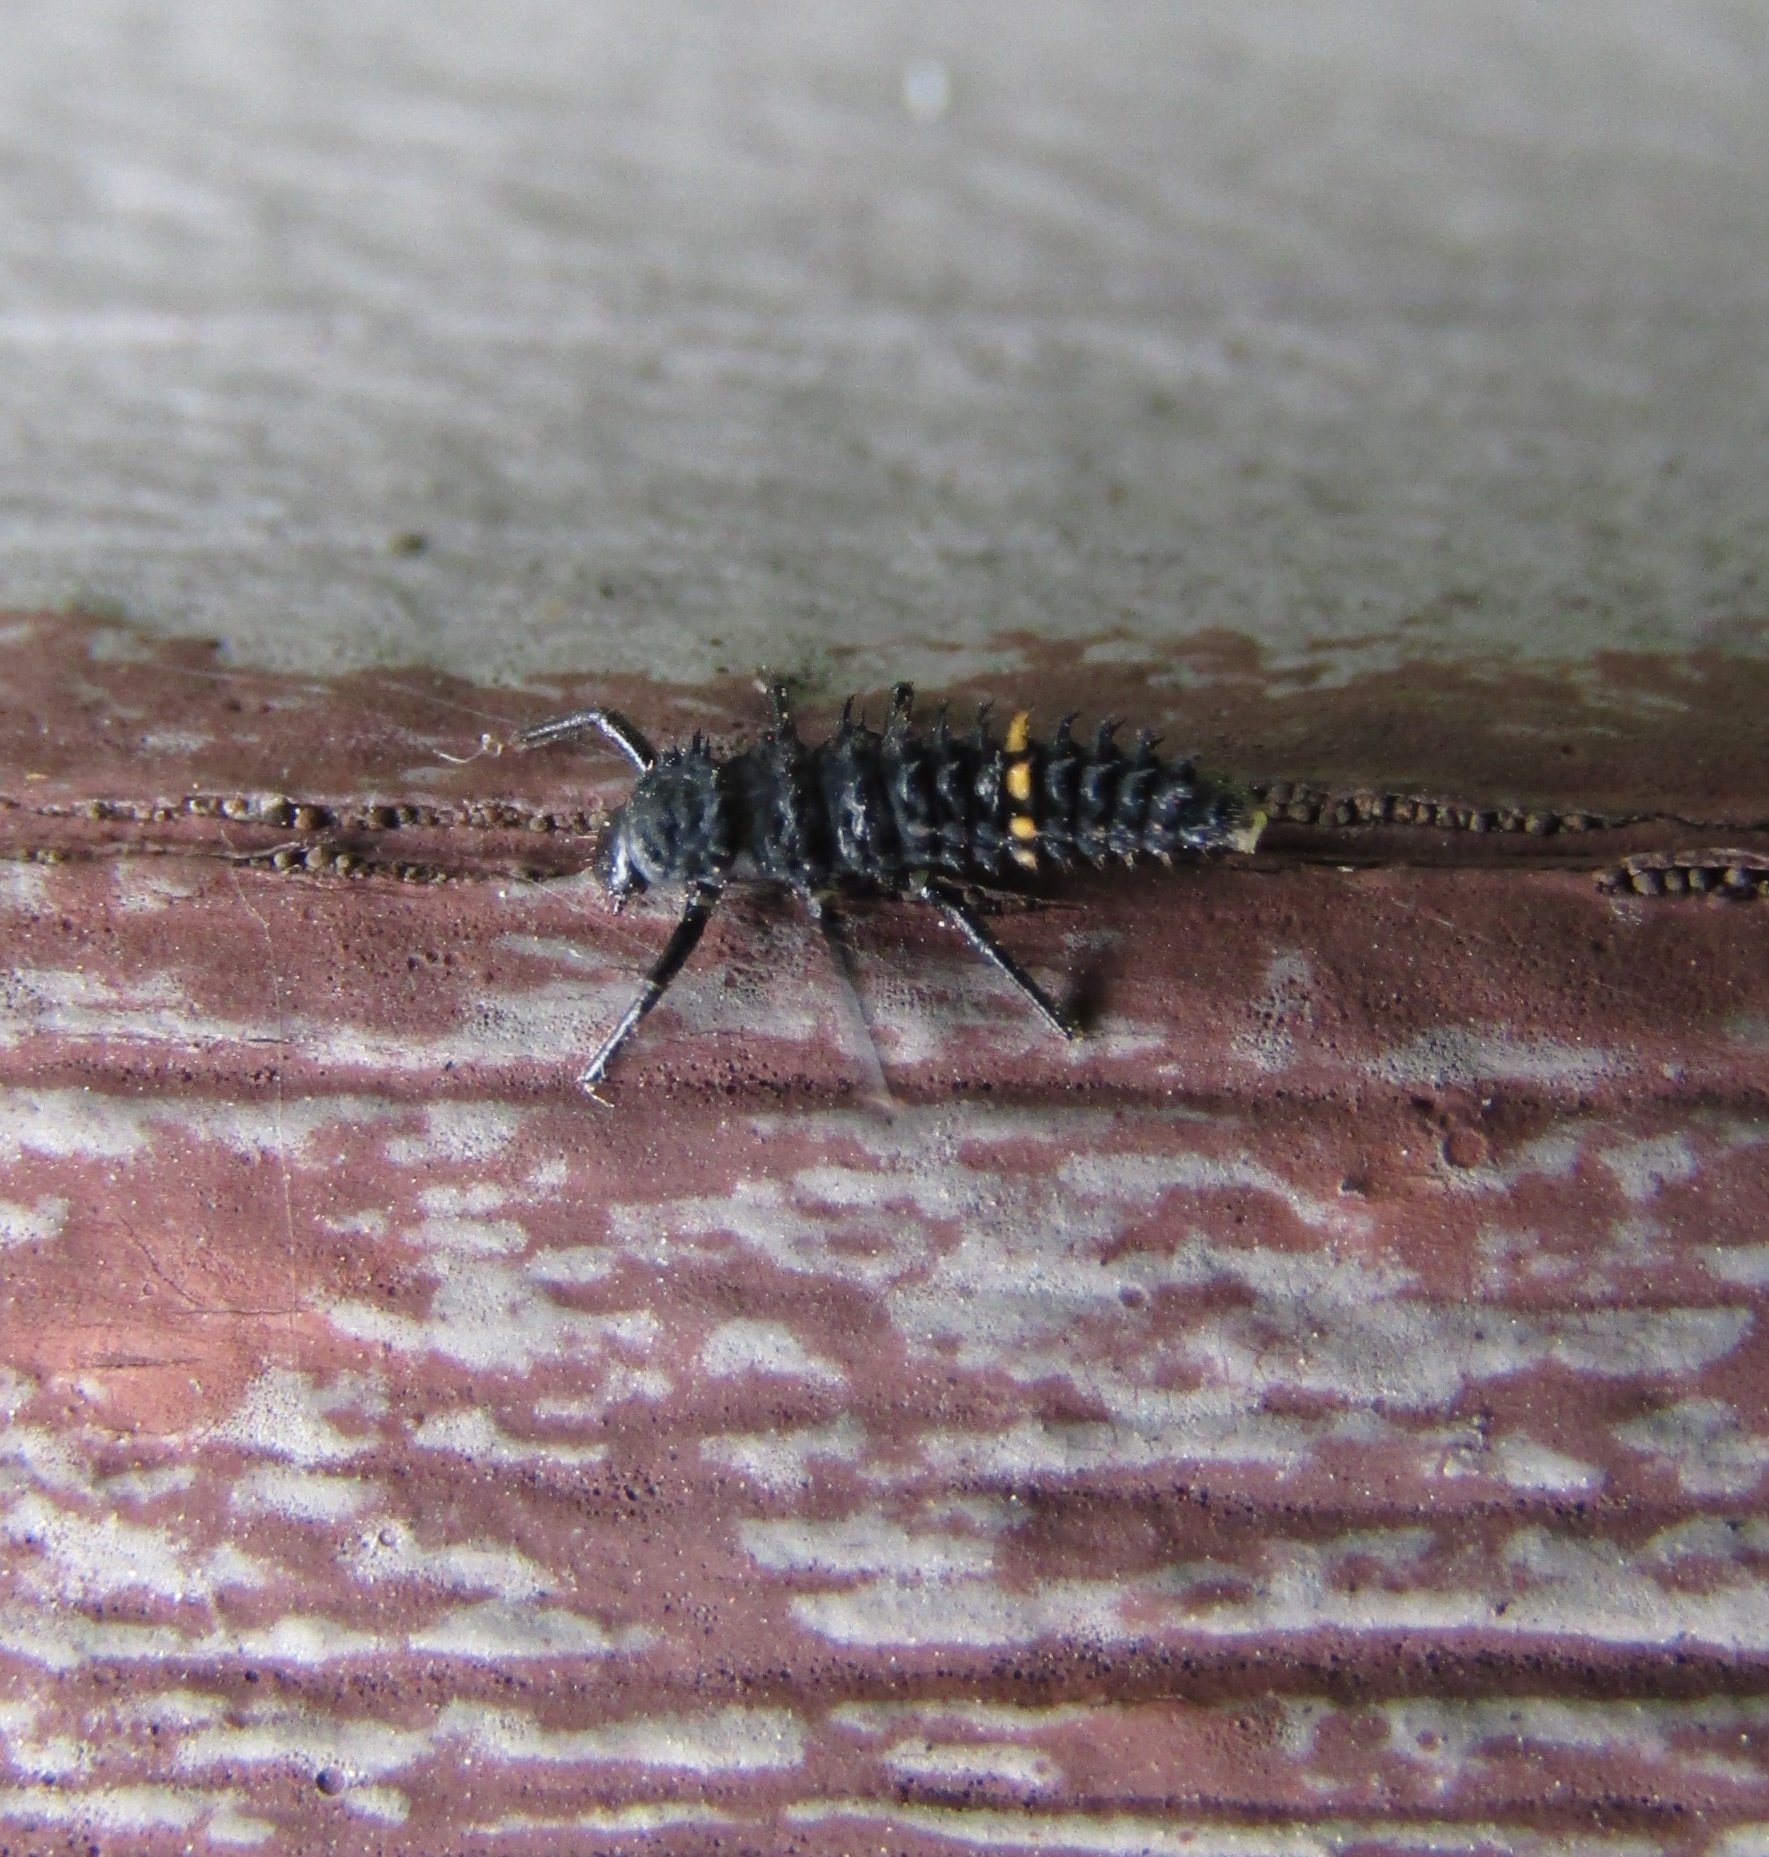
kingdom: Animalia
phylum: Arthropoda
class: Insecta
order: Coleoptera
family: Coccinellidae
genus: Harmonia
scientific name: Harmonia conformis
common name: Common spotted ladybird beetle
